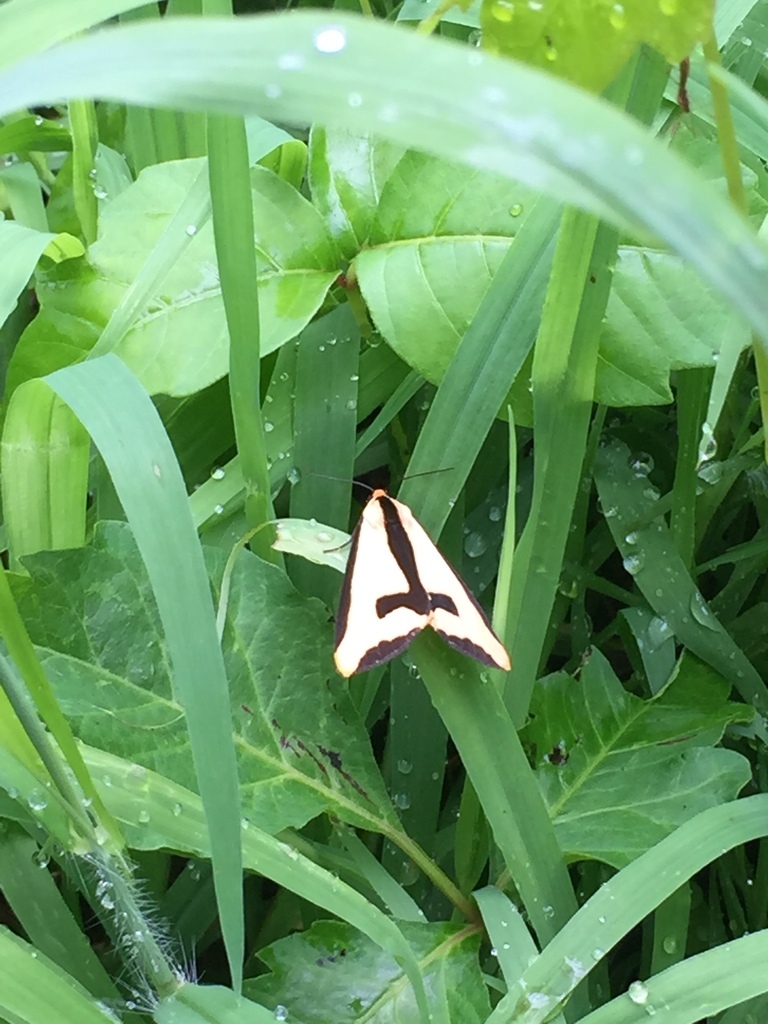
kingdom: Animalia
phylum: Arthropoda
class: Insecta
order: Lepidoptera
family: Erebidae
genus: Haploa
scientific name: Haploa clymene
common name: Clymene moth
